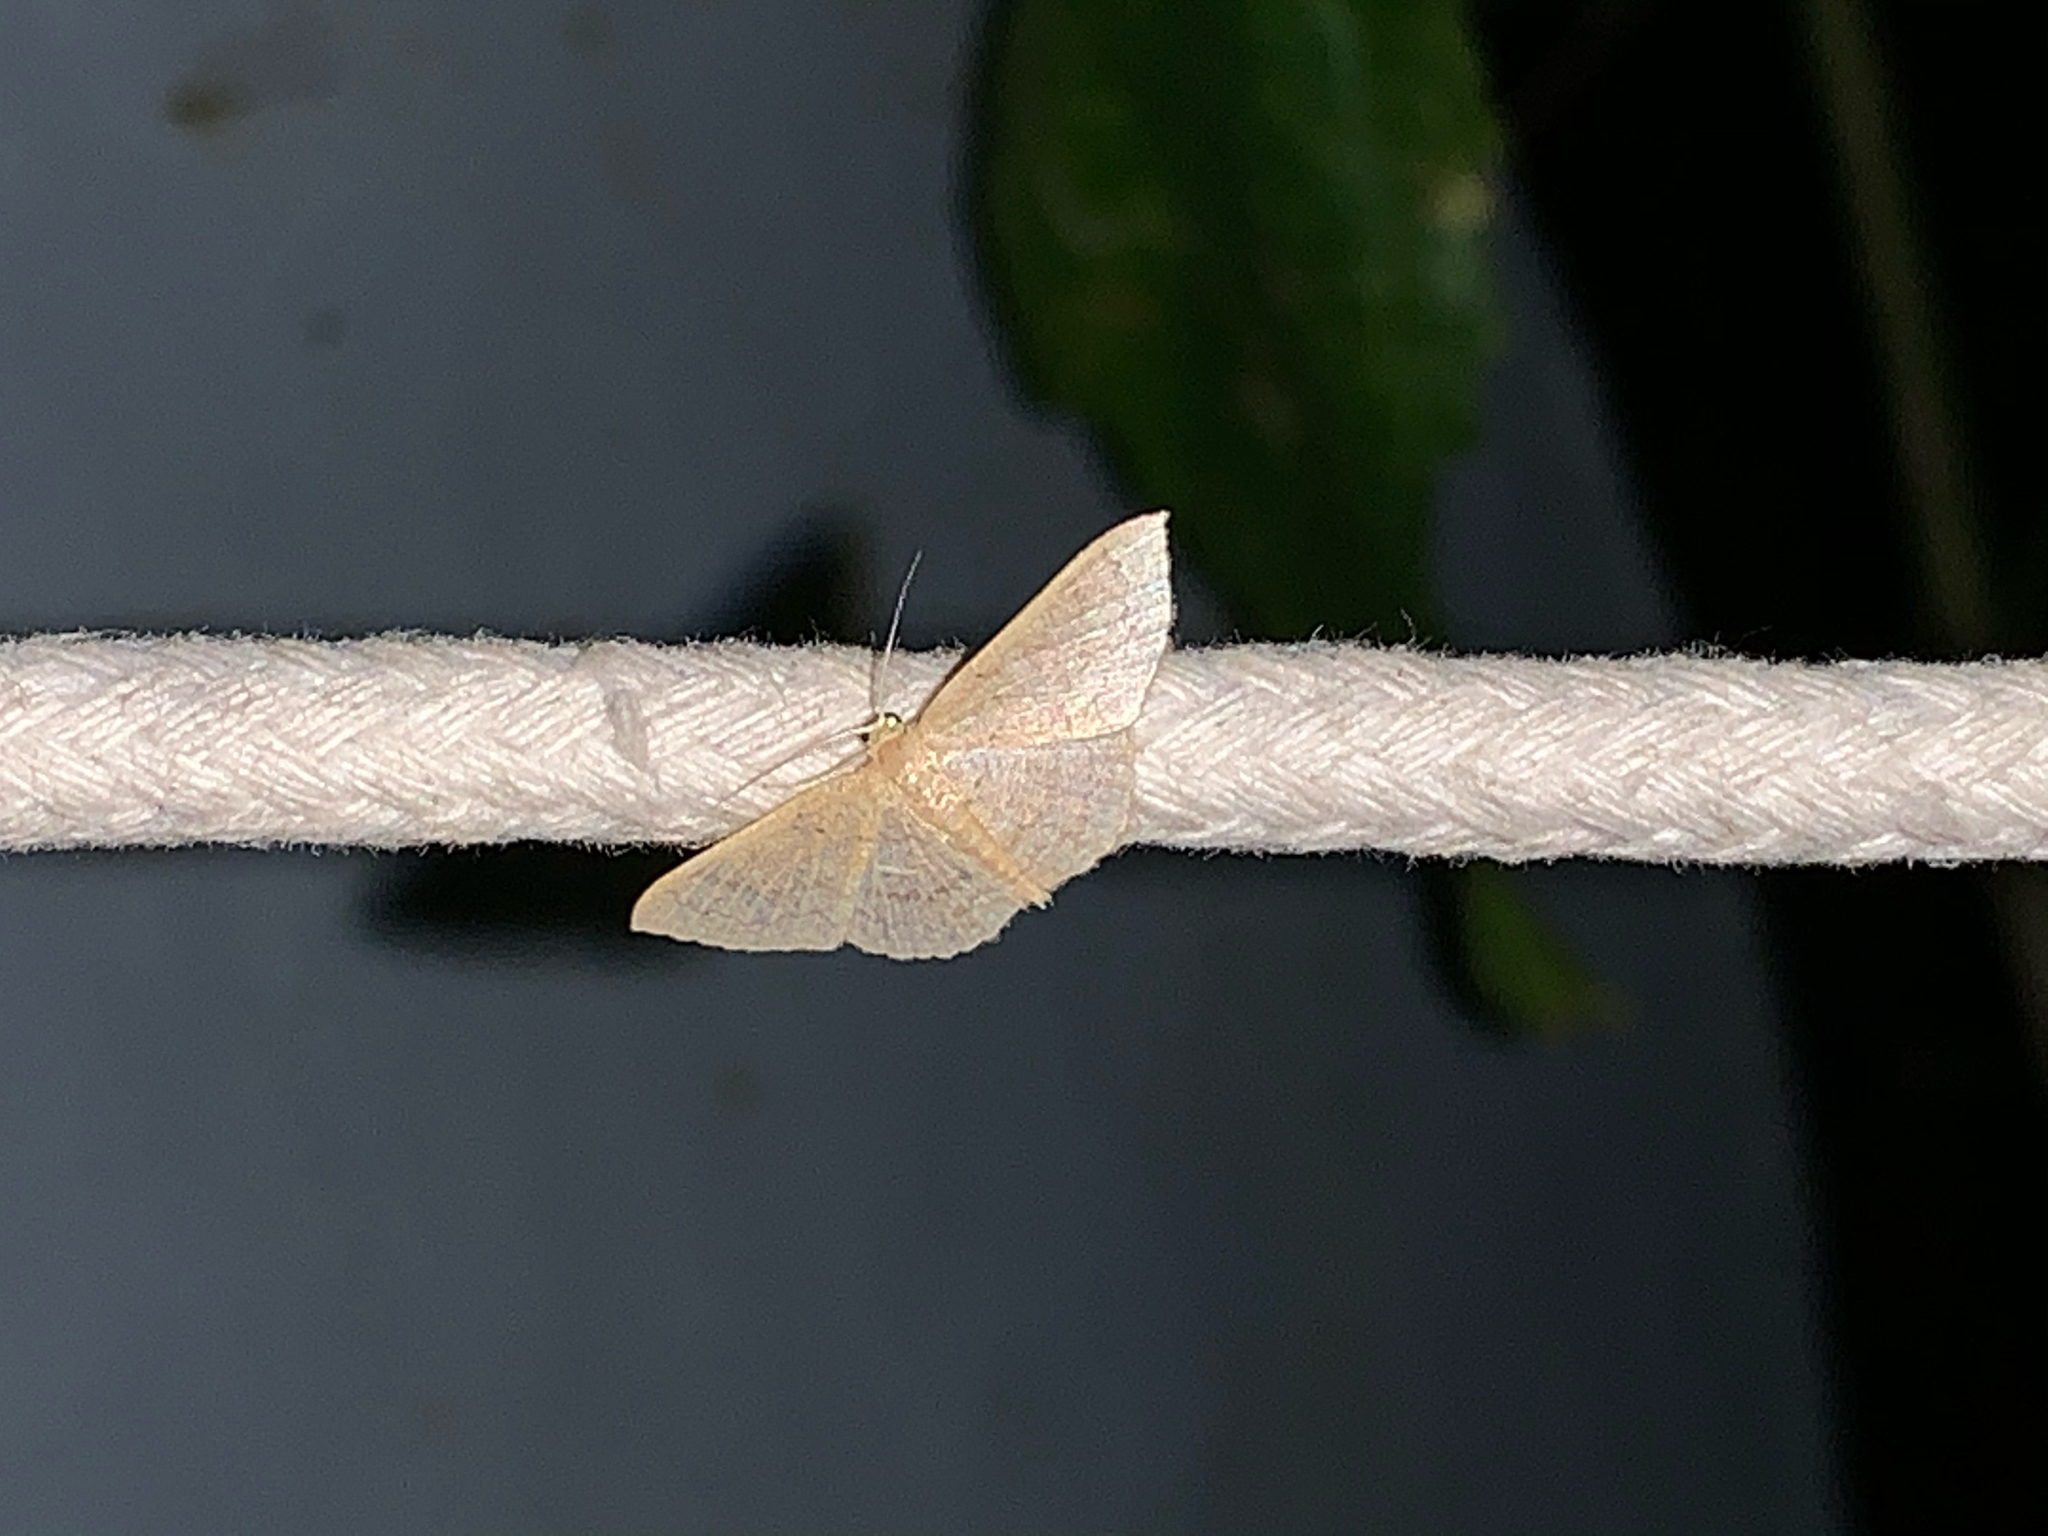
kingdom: Animalia
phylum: Arthropoda
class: Insecta
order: Lepidoptera
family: Geometridae
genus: Pleuroprucha
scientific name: Pleuroprucha insulsaria
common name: Common tan wave
